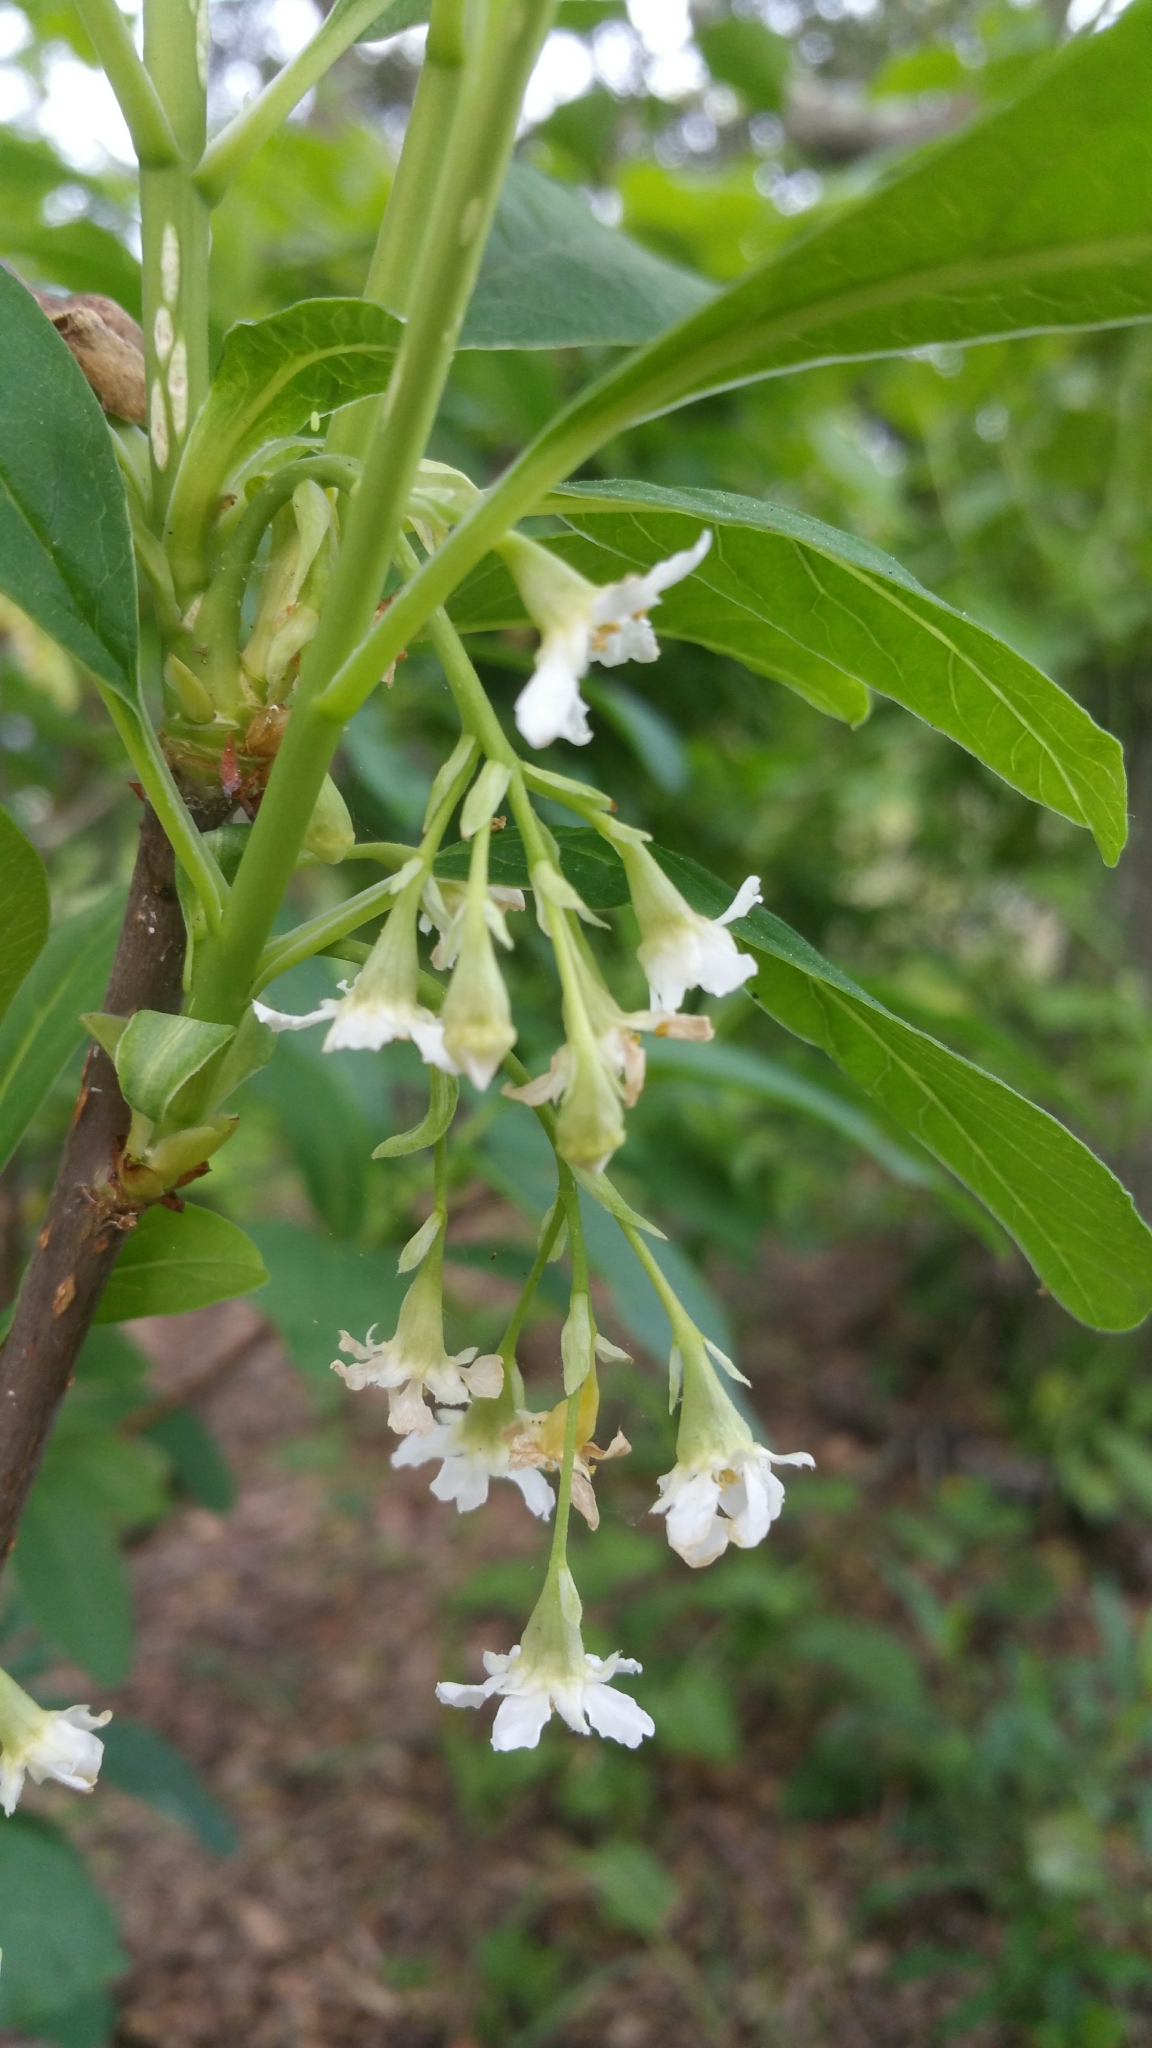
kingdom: Plantae
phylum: Tracheophyta
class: Magnoliopsida
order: Rosales
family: Rosaceae
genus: Oemleria
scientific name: Oemleria cerasiformis
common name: Osoberry
